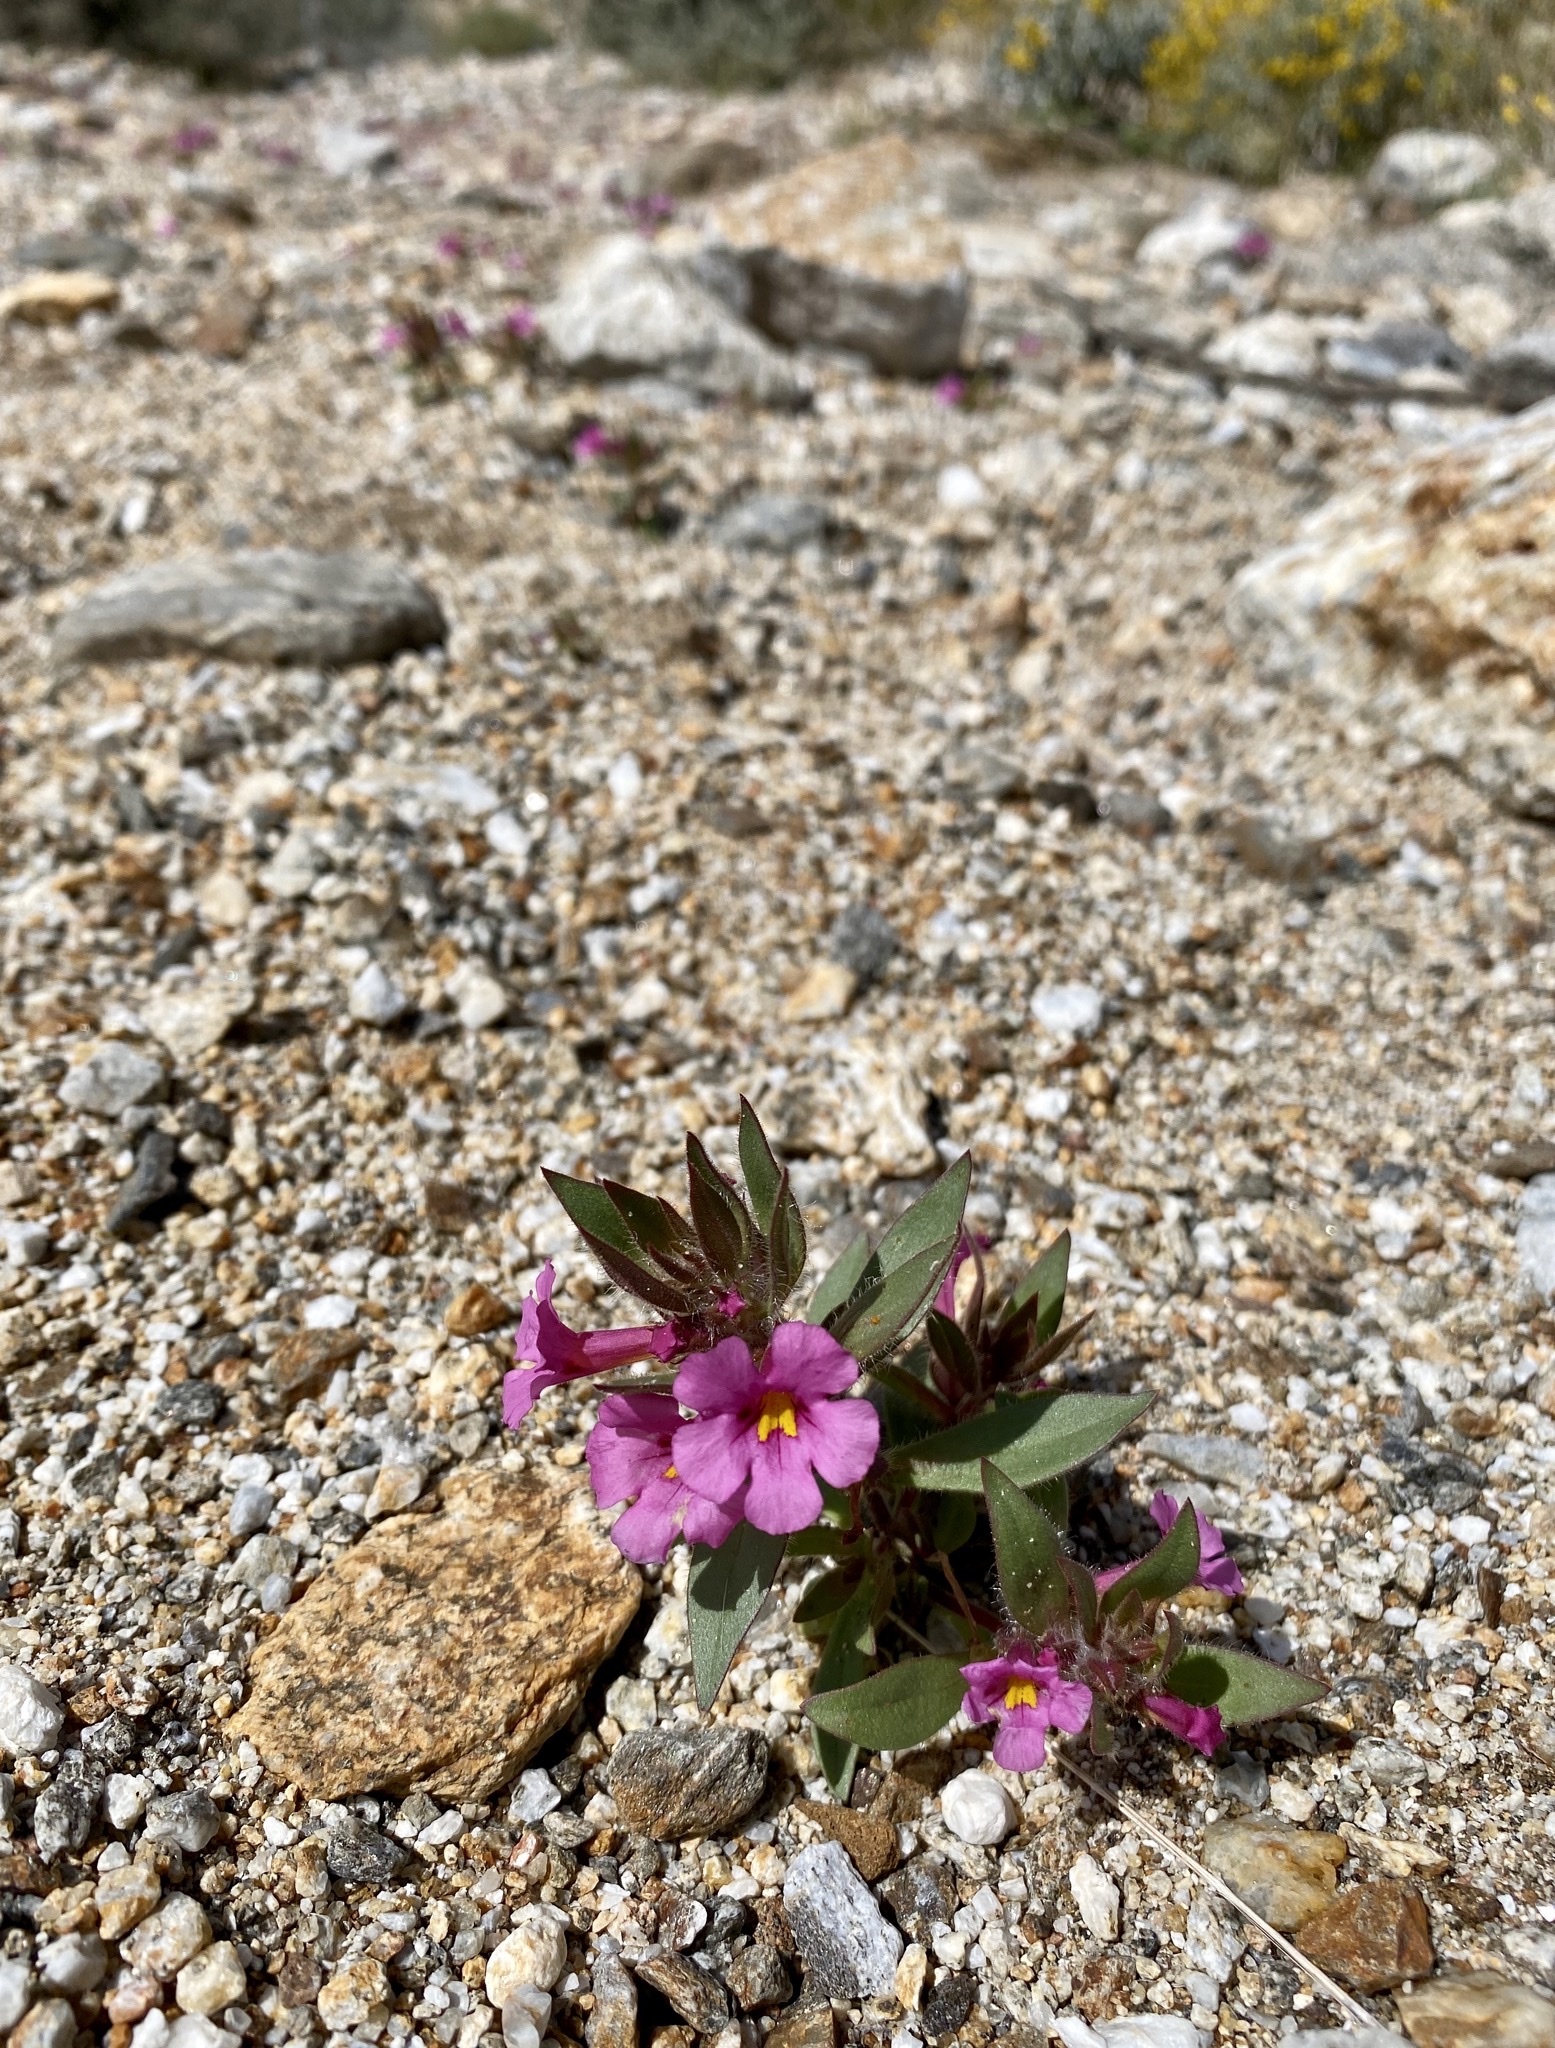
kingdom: Plantae
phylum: Tracheophyta
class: Magnoliopsida
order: Lamiales
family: Phrymaceae
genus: Diplacus
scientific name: Diplacus bigelovii
